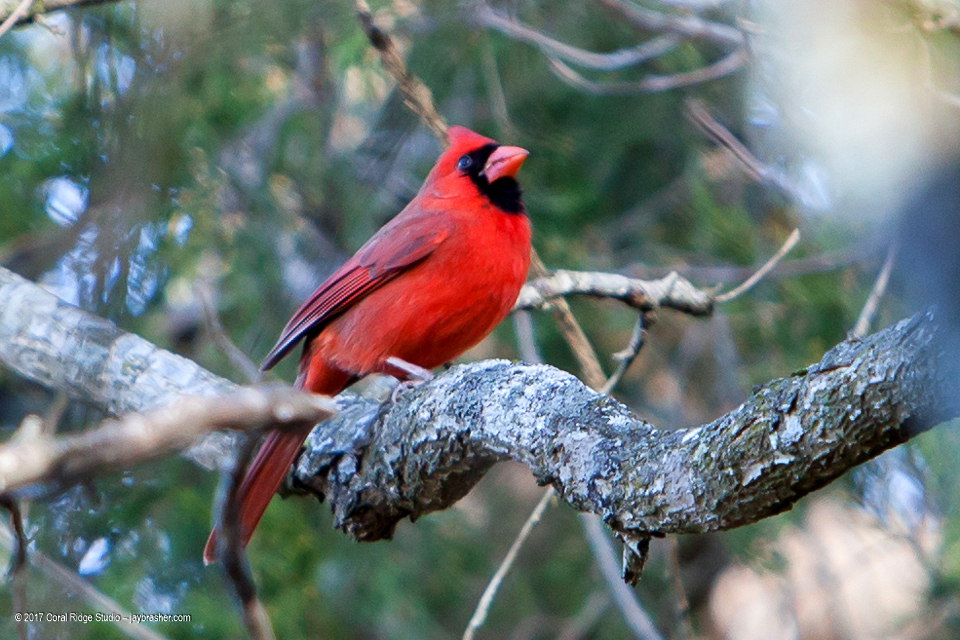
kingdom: Animalia
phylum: Chordata
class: Aves
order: Passeriformes
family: Cardinalidae
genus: Cardinalis
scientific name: Cardinalis cardinalis
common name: Northern cardinal
